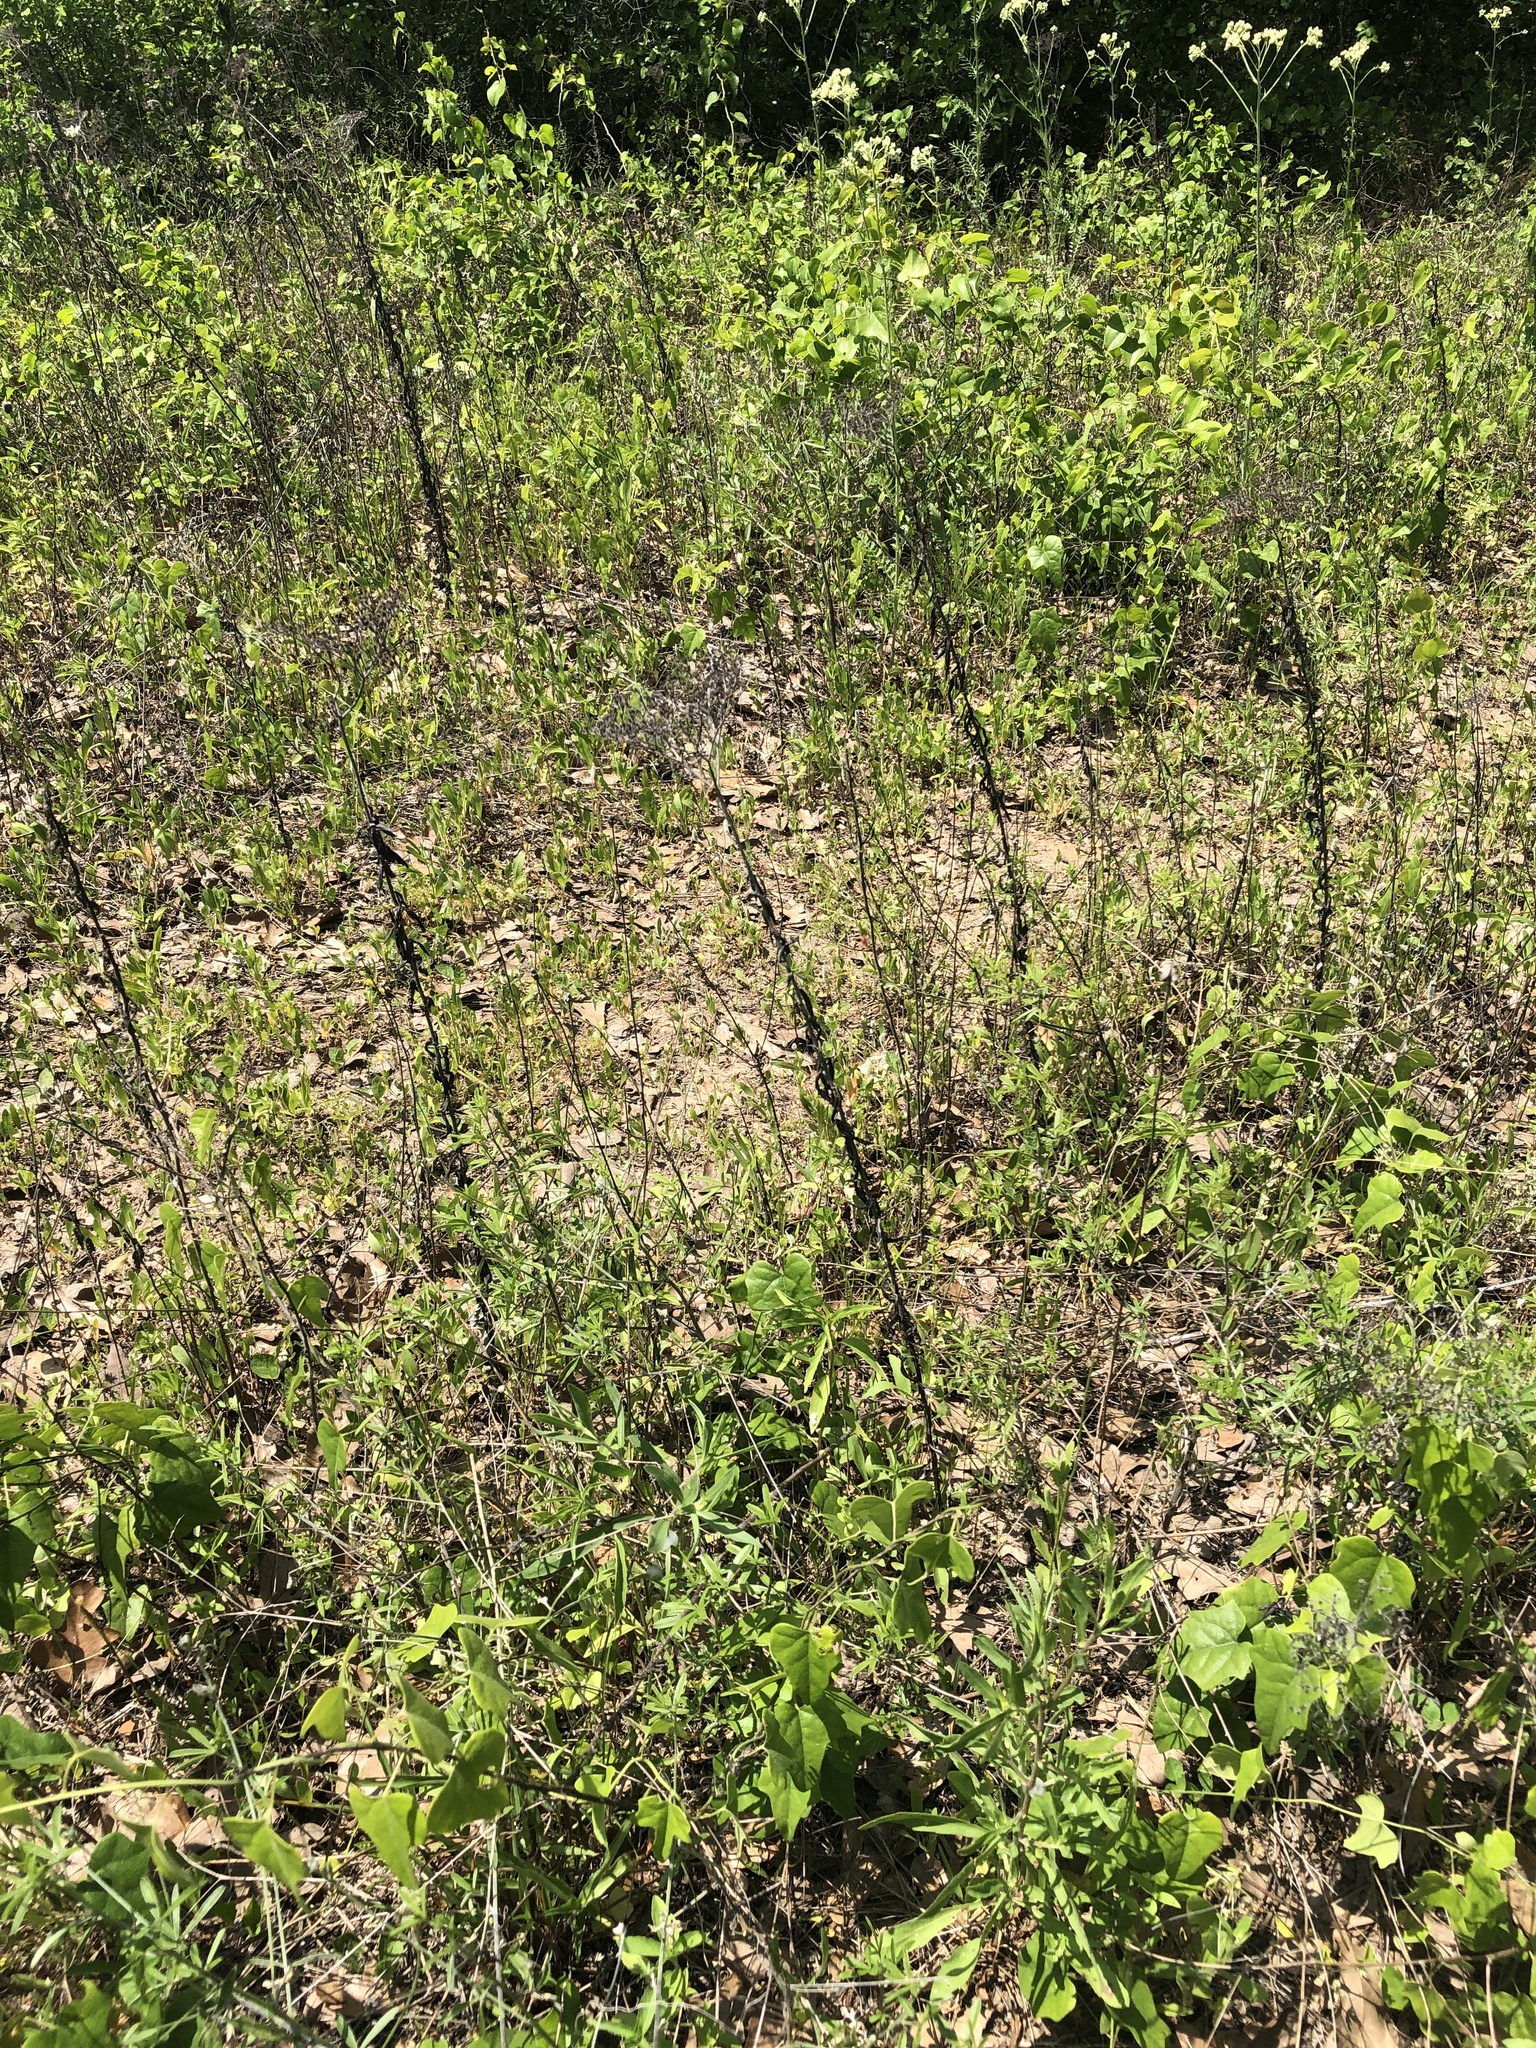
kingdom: Plantae
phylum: Tracheophyta
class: Magnoliopsida
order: Caryophyllales
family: Polygonaceae
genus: Eriogonum
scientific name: Eriogonum multiflorum
